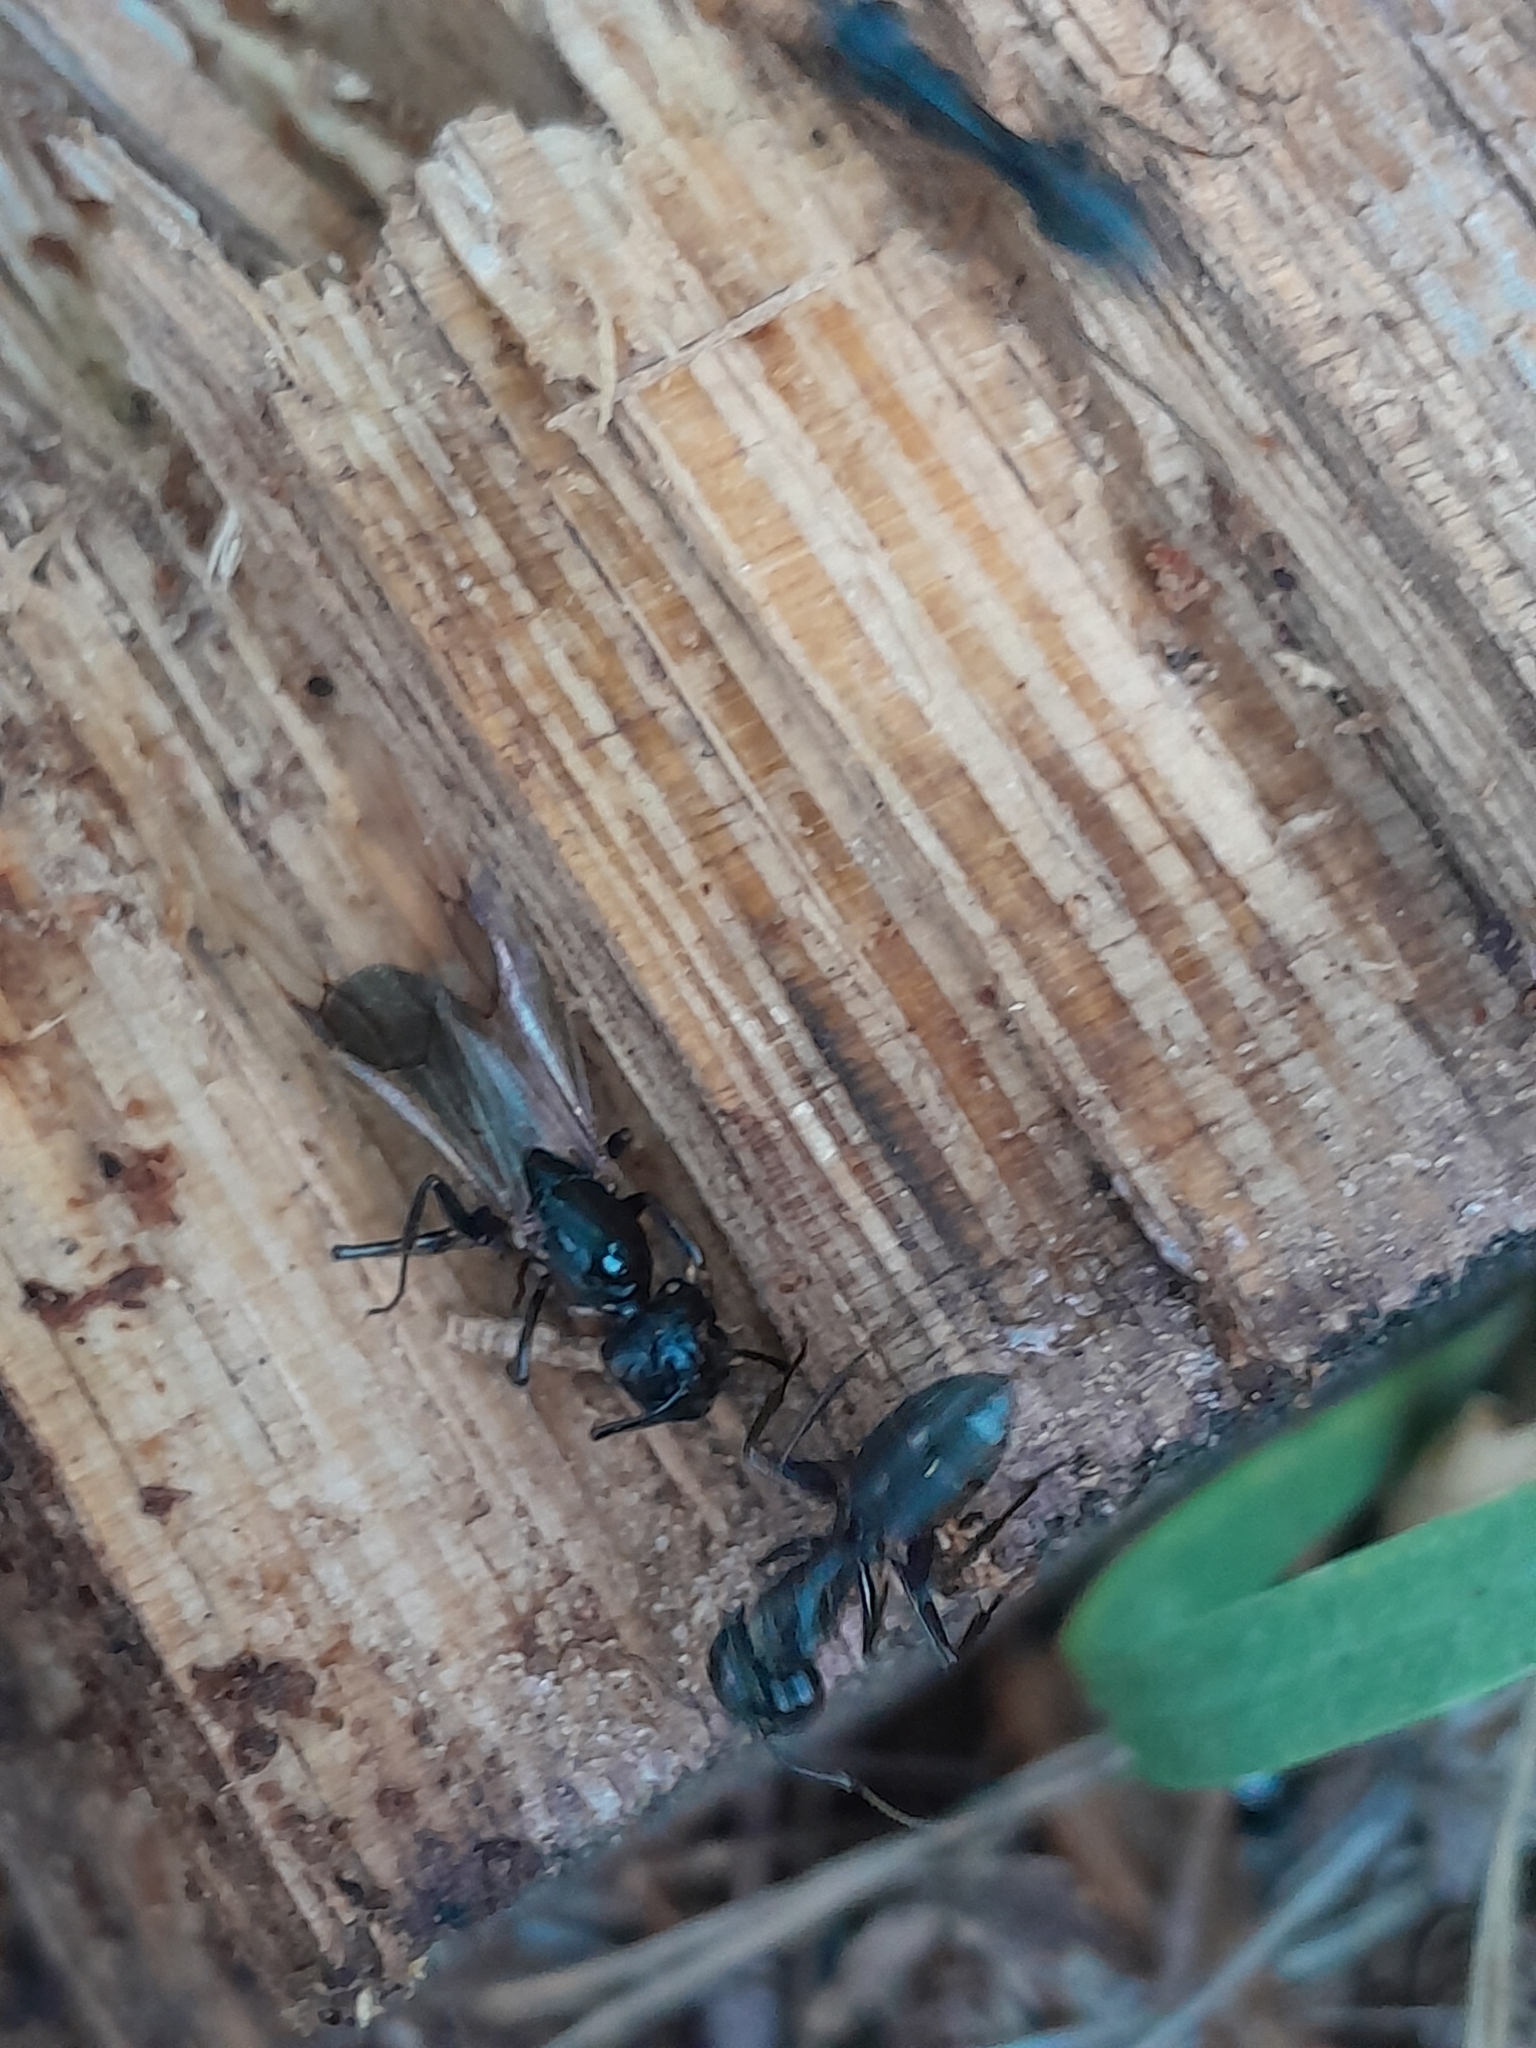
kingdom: Animalia
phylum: Arthropoda
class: Insecta
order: Hymenoptera
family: Formicidae
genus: Camponotus
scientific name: Camponotus vagus
